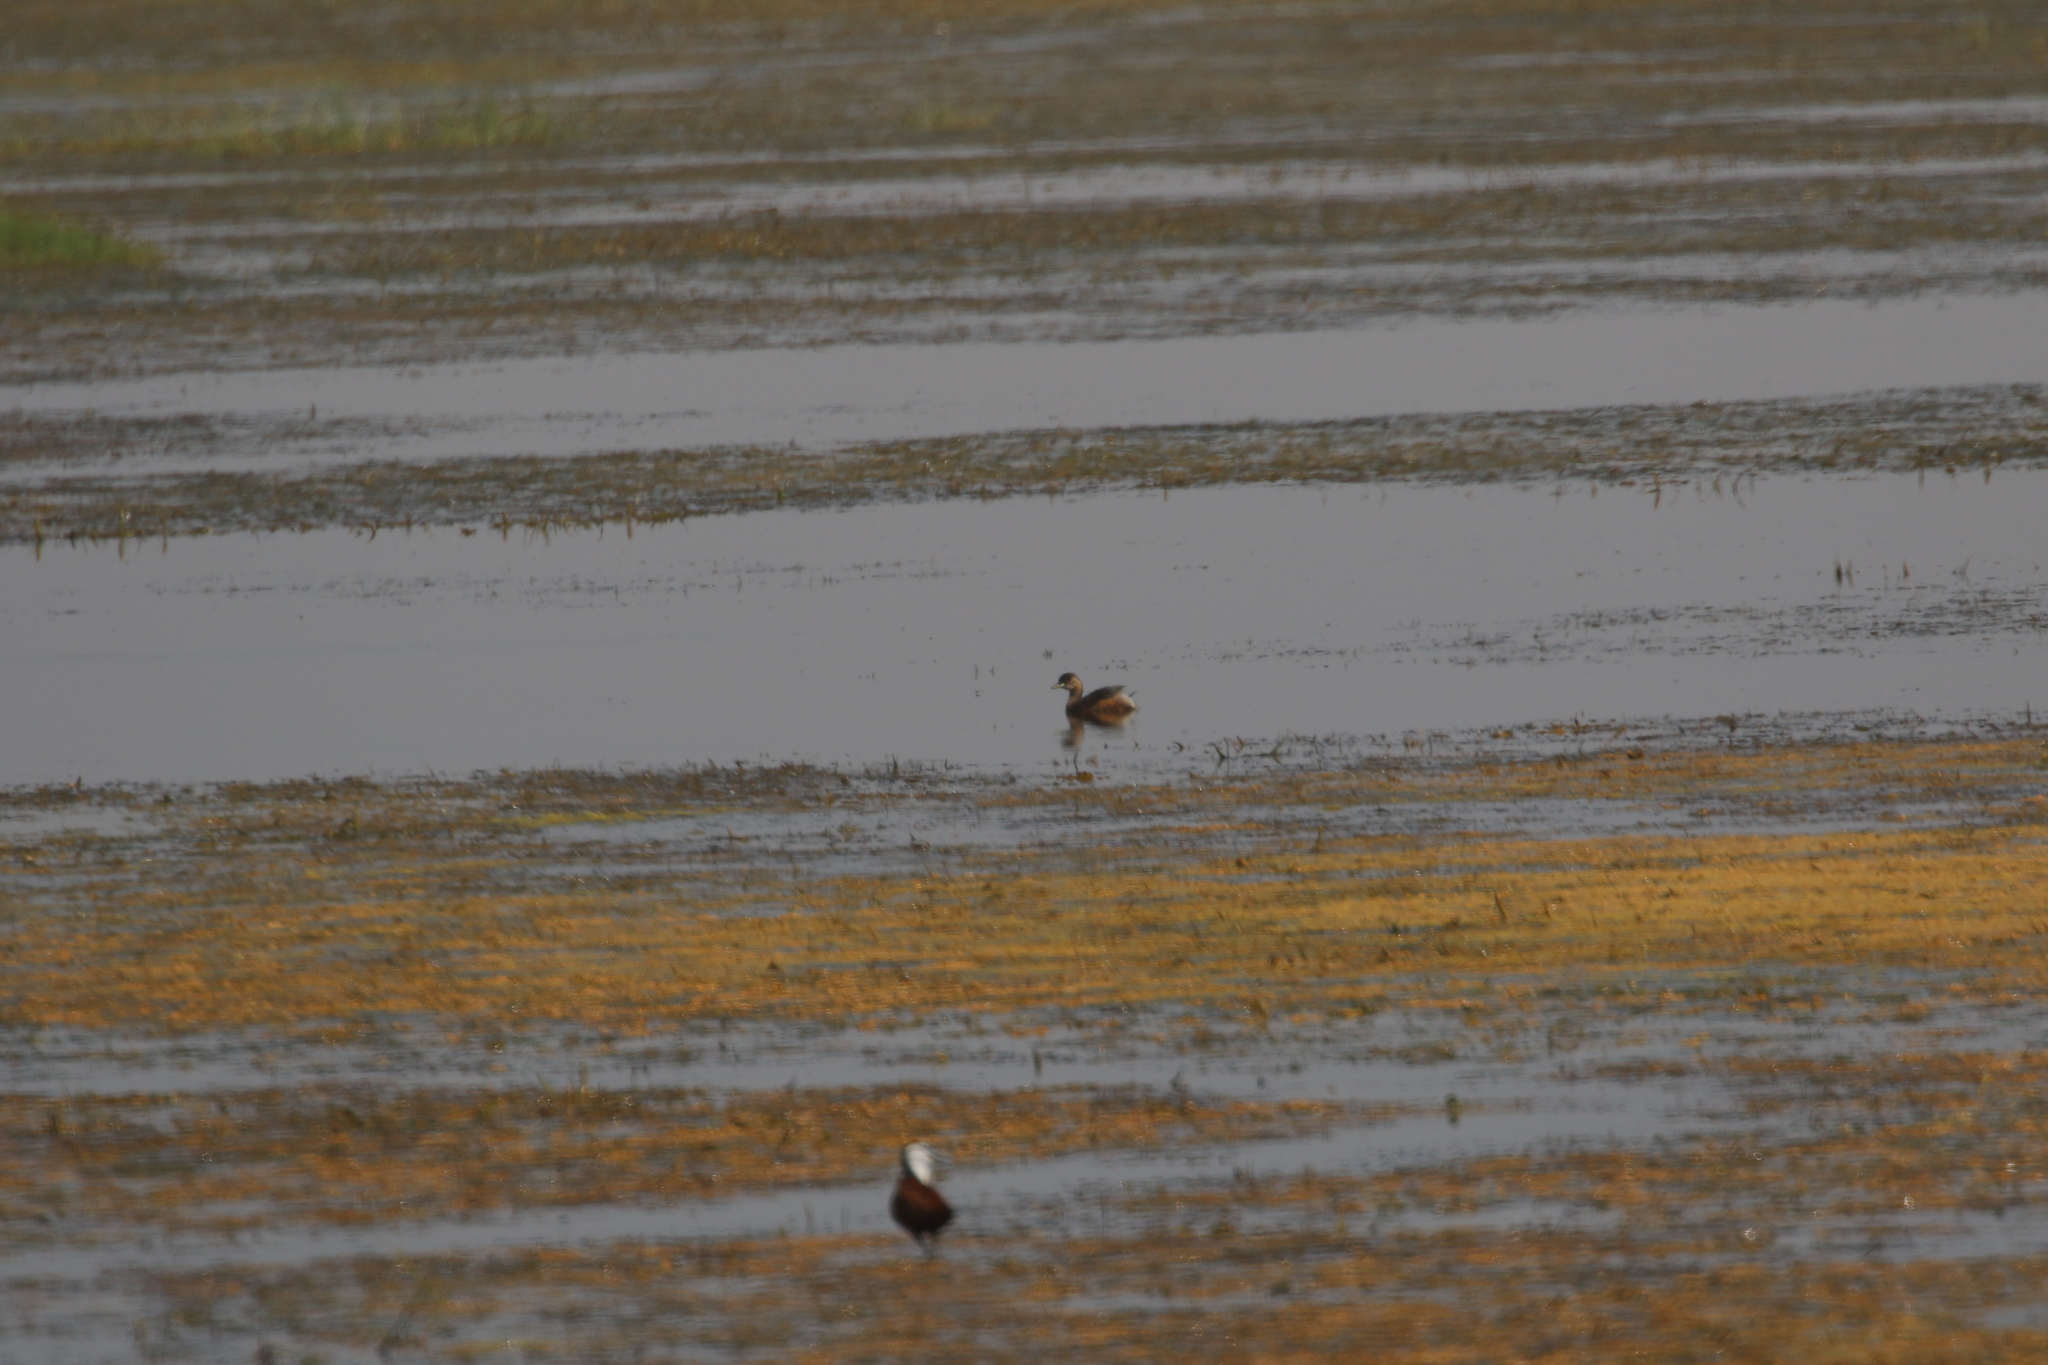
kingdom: Animalia
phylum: Chordata
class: Aves
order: Podicipediformes
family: Podicipedidae
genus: Tachybaptus
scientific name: Tachybaptus ruficollis
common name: Little grebe
